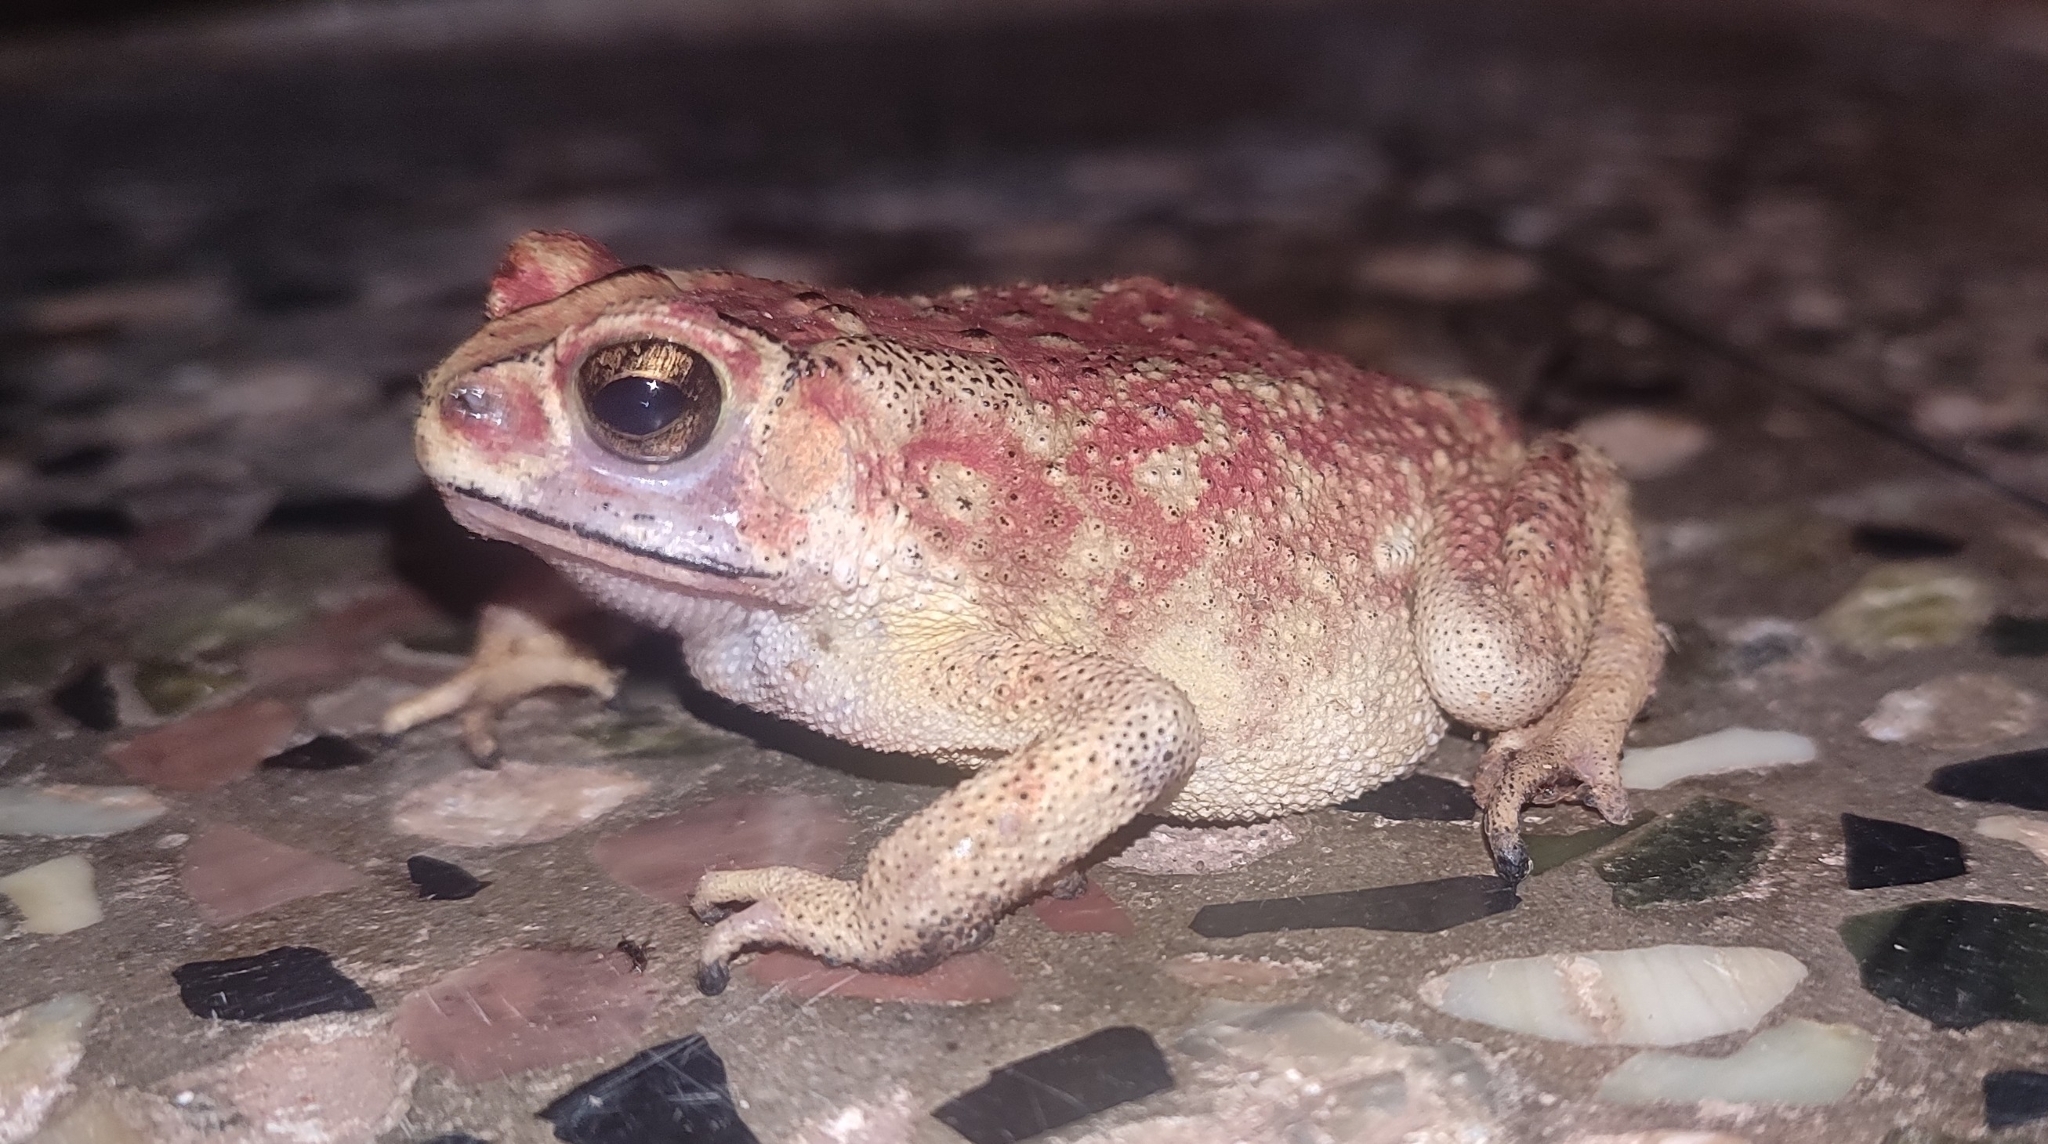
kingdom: Animalia
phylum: Chordata
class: Amphibia
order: Anura
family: Bufonidae
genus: Duttaphrynus
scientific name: Duttaphrynus melanostictus
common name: Common sunda toad
